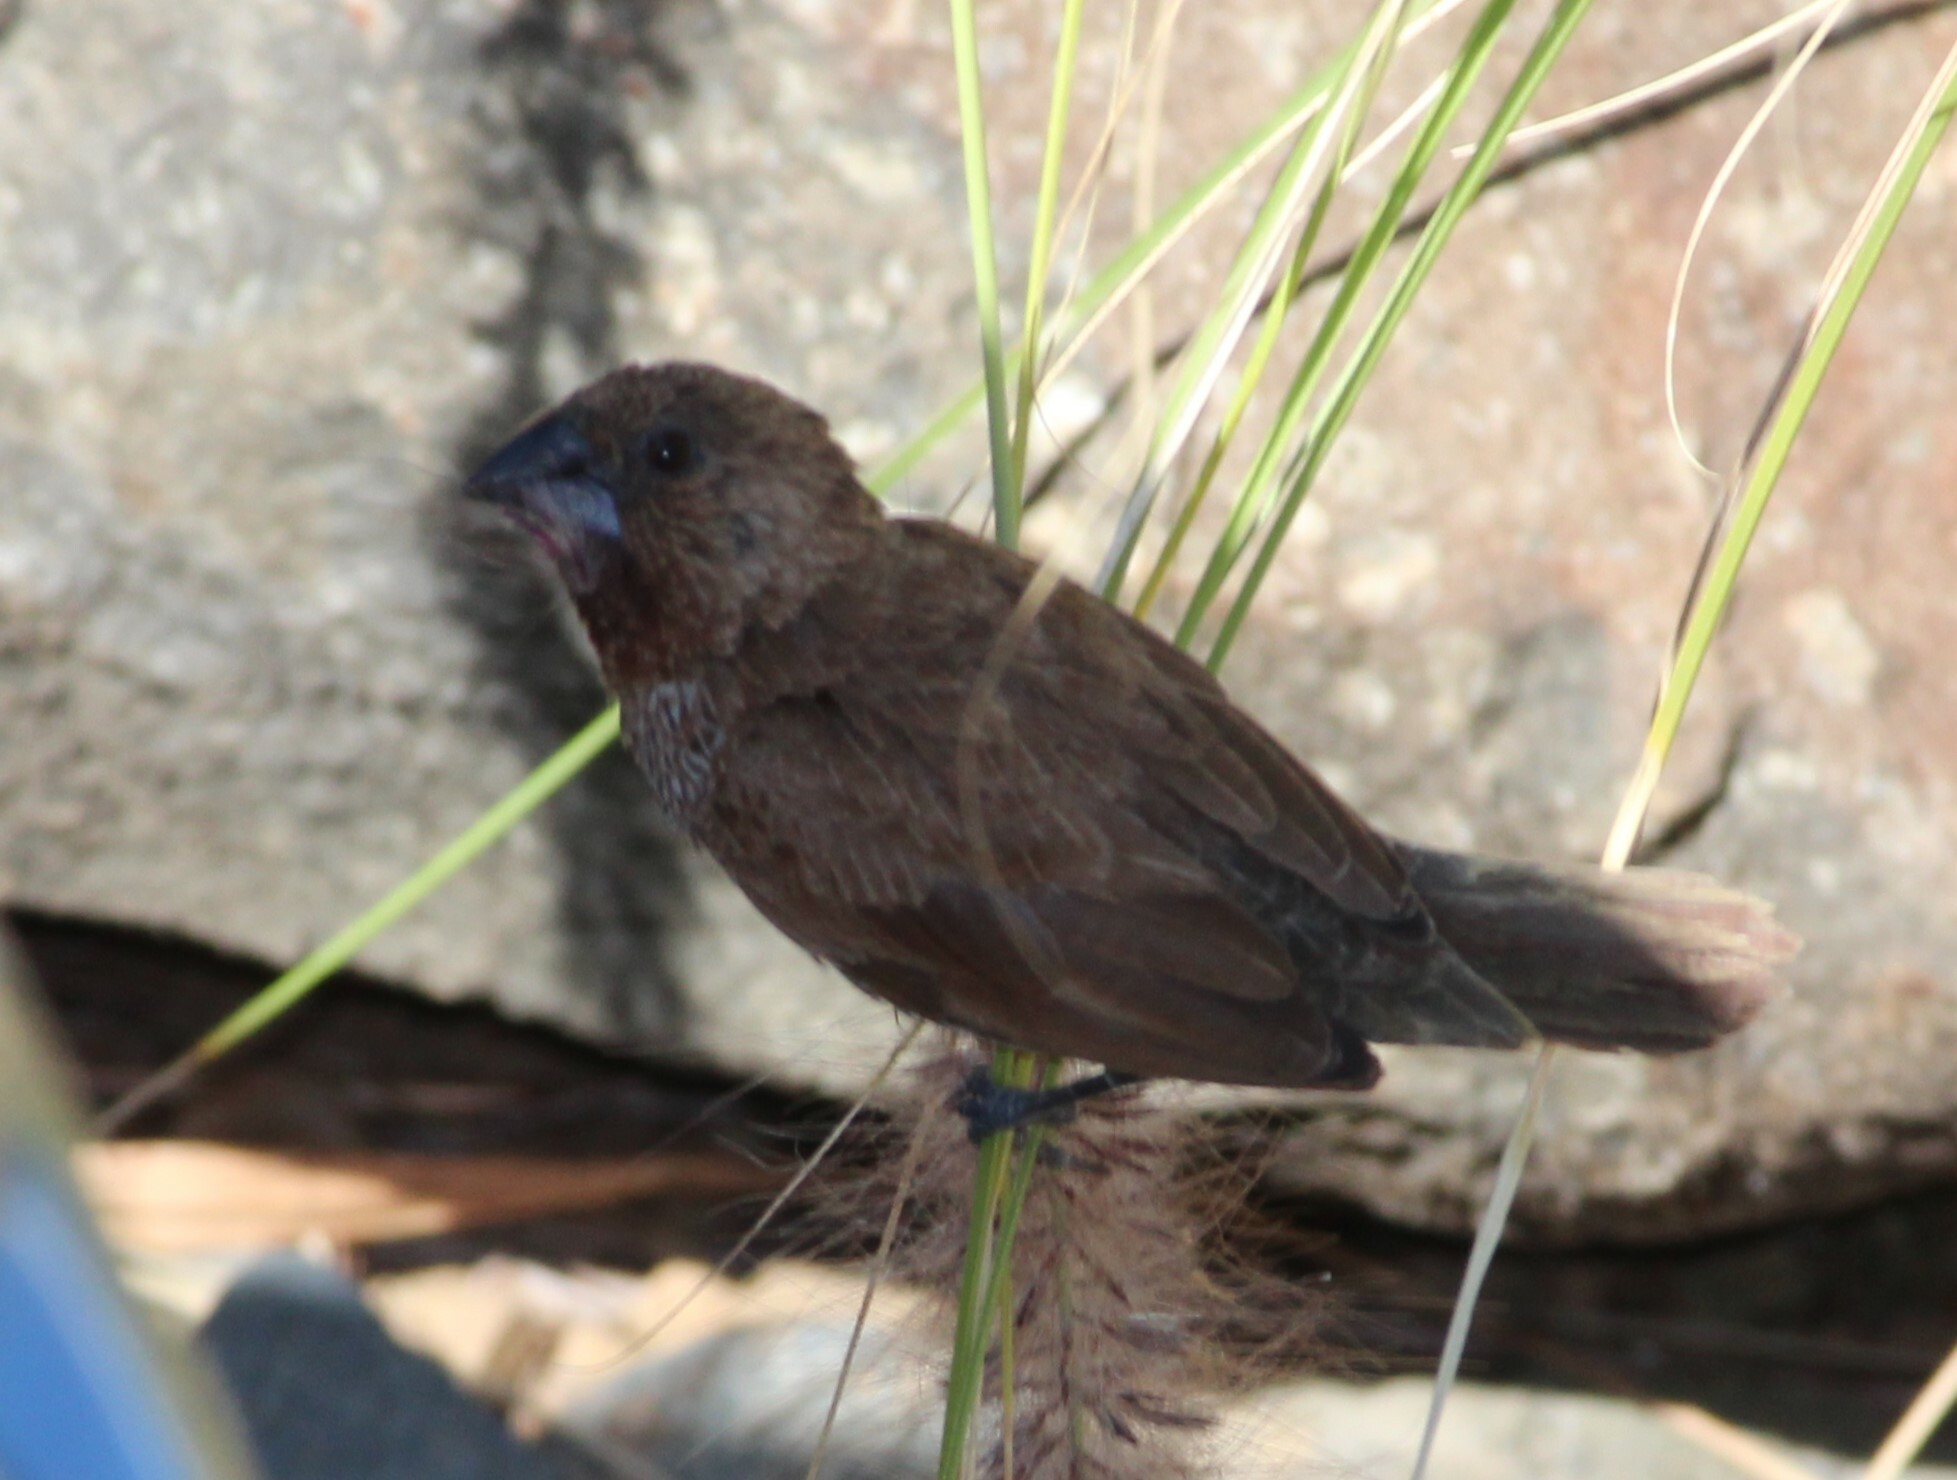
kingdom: Animalia
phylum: Chordata
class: Aves
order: Passeriformes
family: Estrildidae
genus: Lonchura
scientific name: Lonchura punctulata
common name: Scaly-breasted munia
